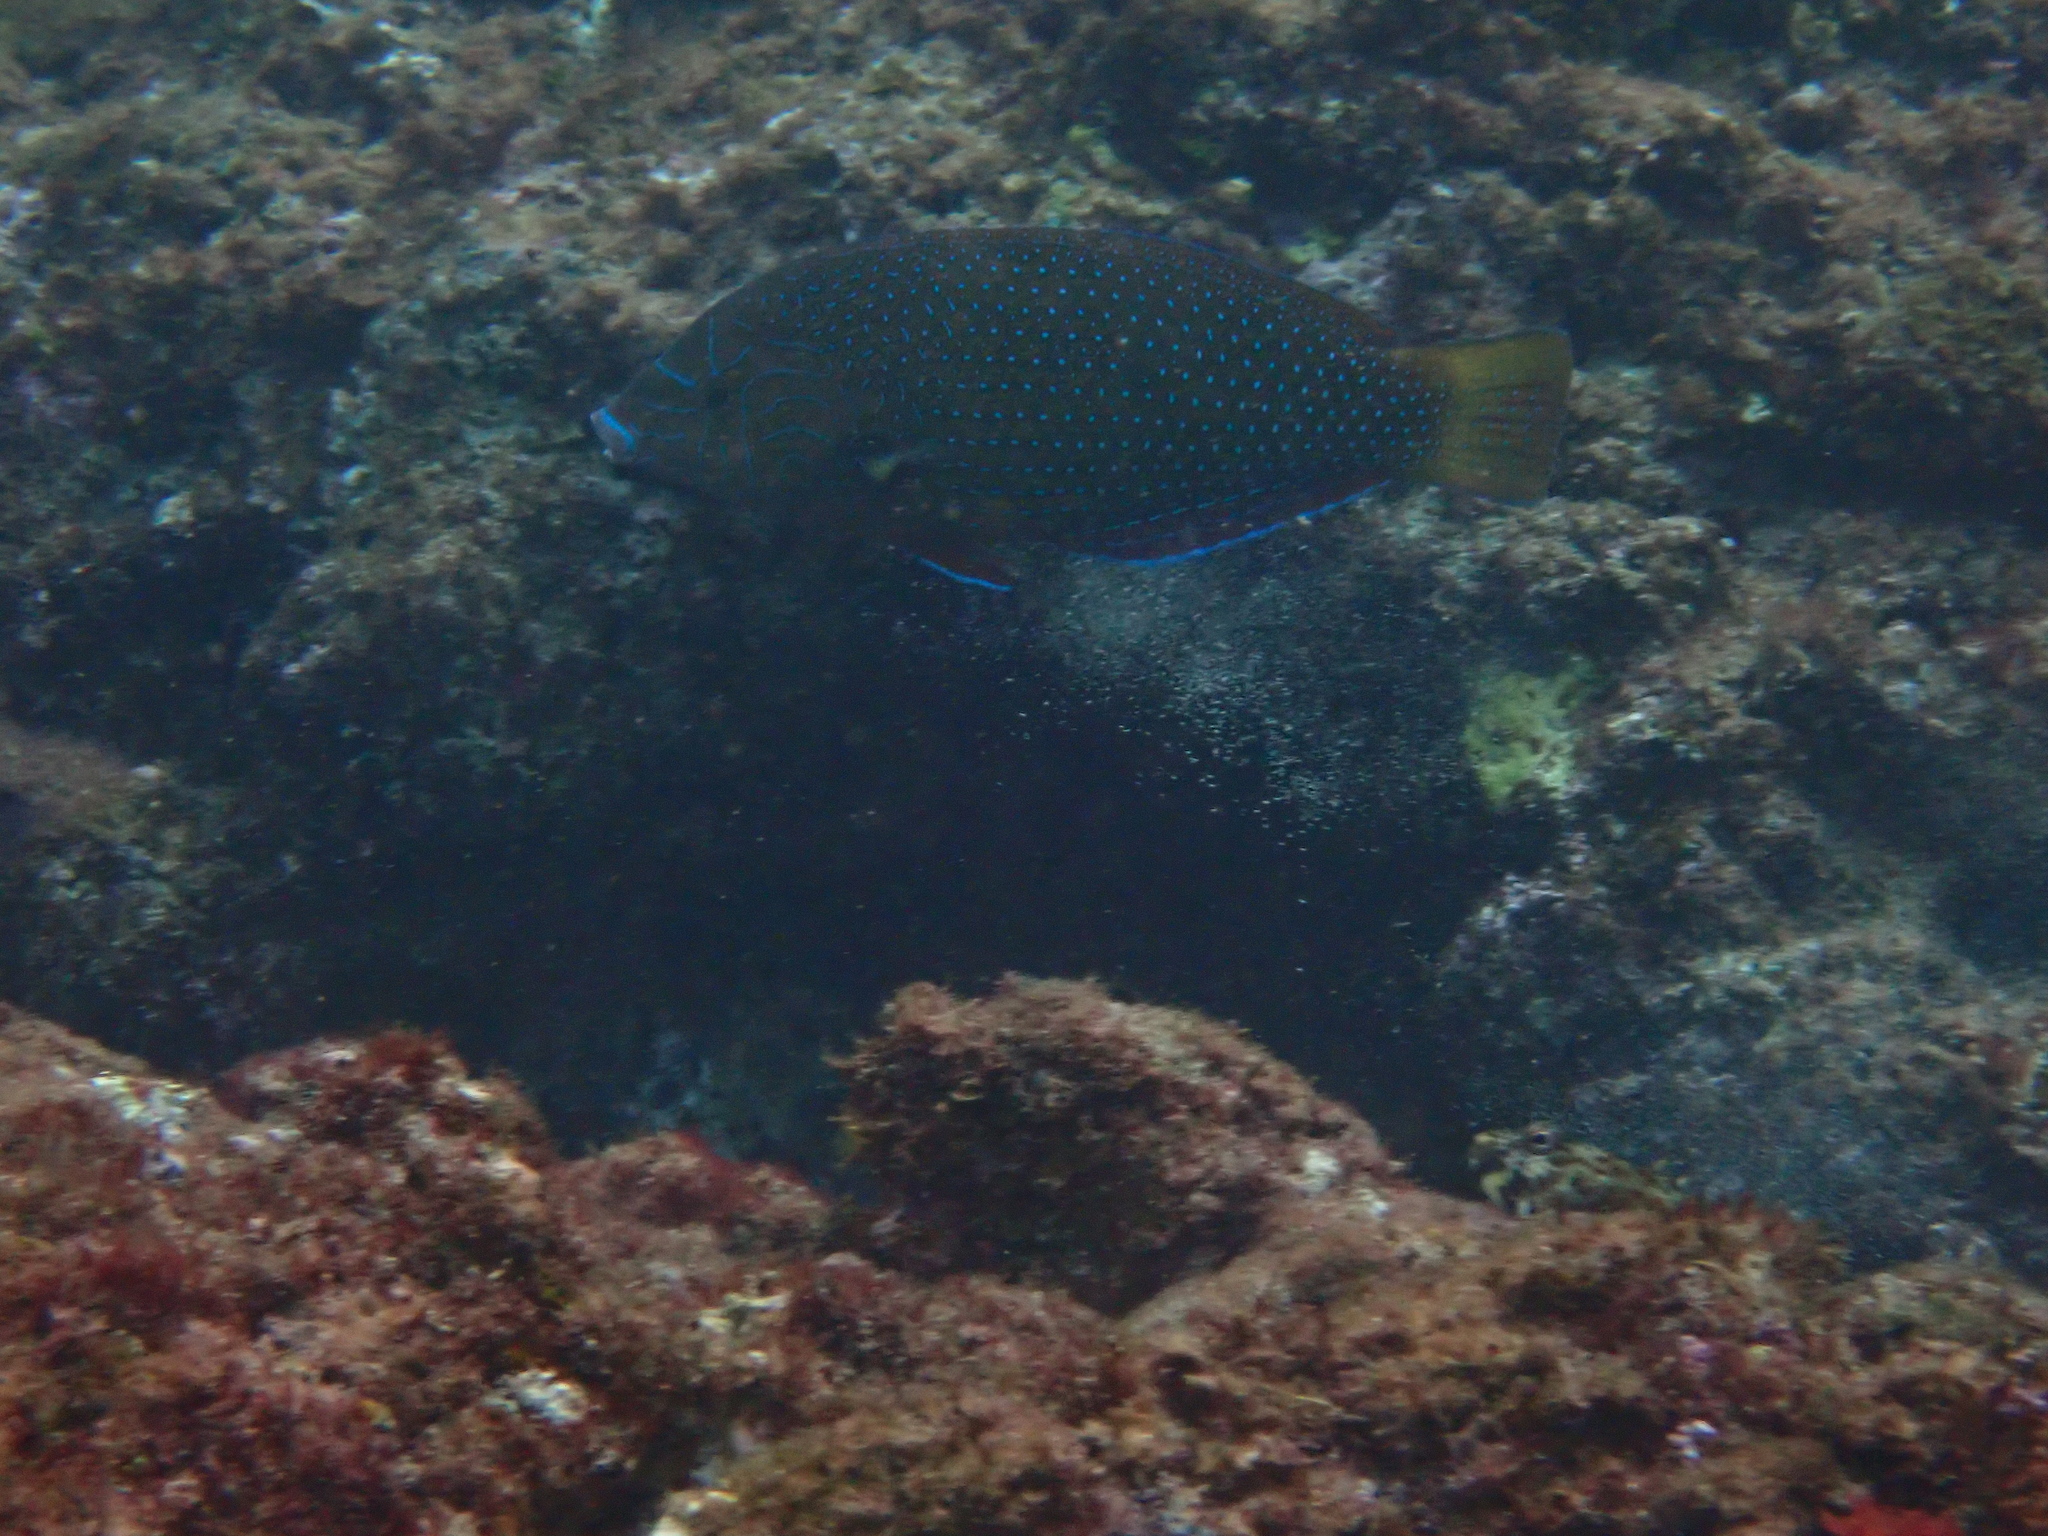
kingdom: Animalia
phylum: Chordata
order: Perciformes
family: Labridae
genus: Anampses
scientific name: Anampses caeruleopunctatus
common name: Bluespotted wrasse
